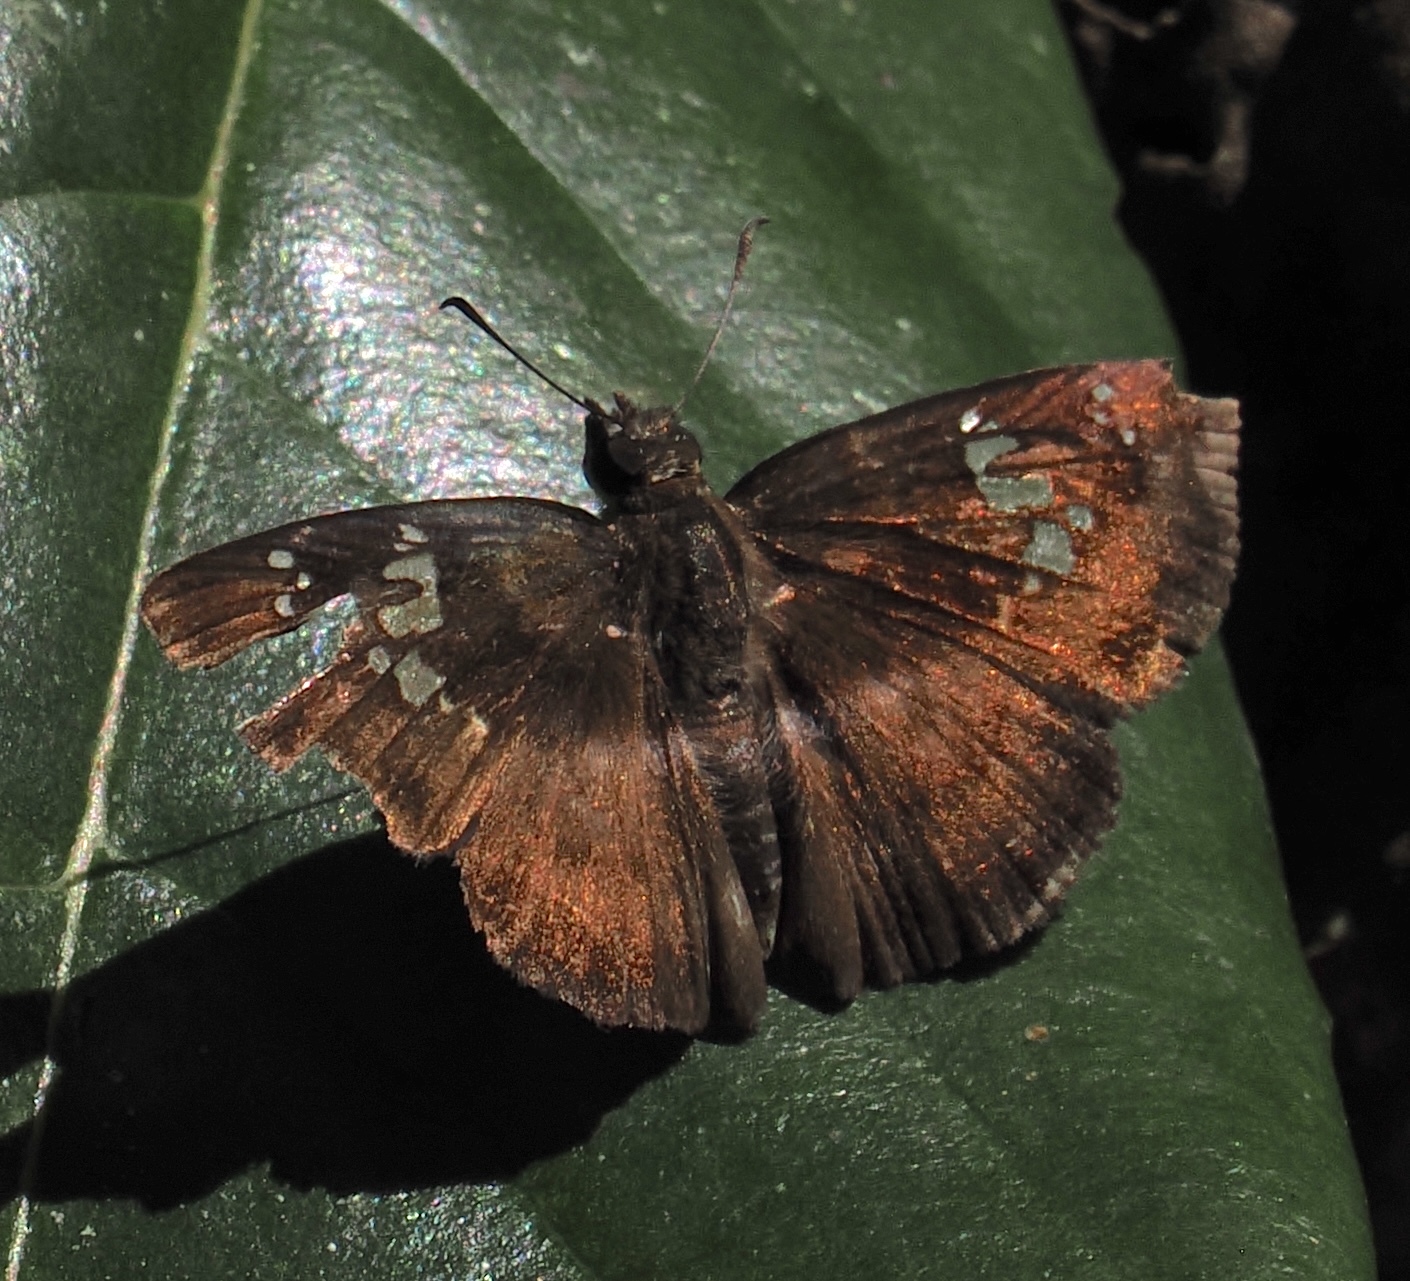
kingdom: Animalia
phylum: Arthropoda
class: Insecta
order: Lepidoptera
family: Hesperiidae
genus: Quadrus
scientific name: Quadrus tros
